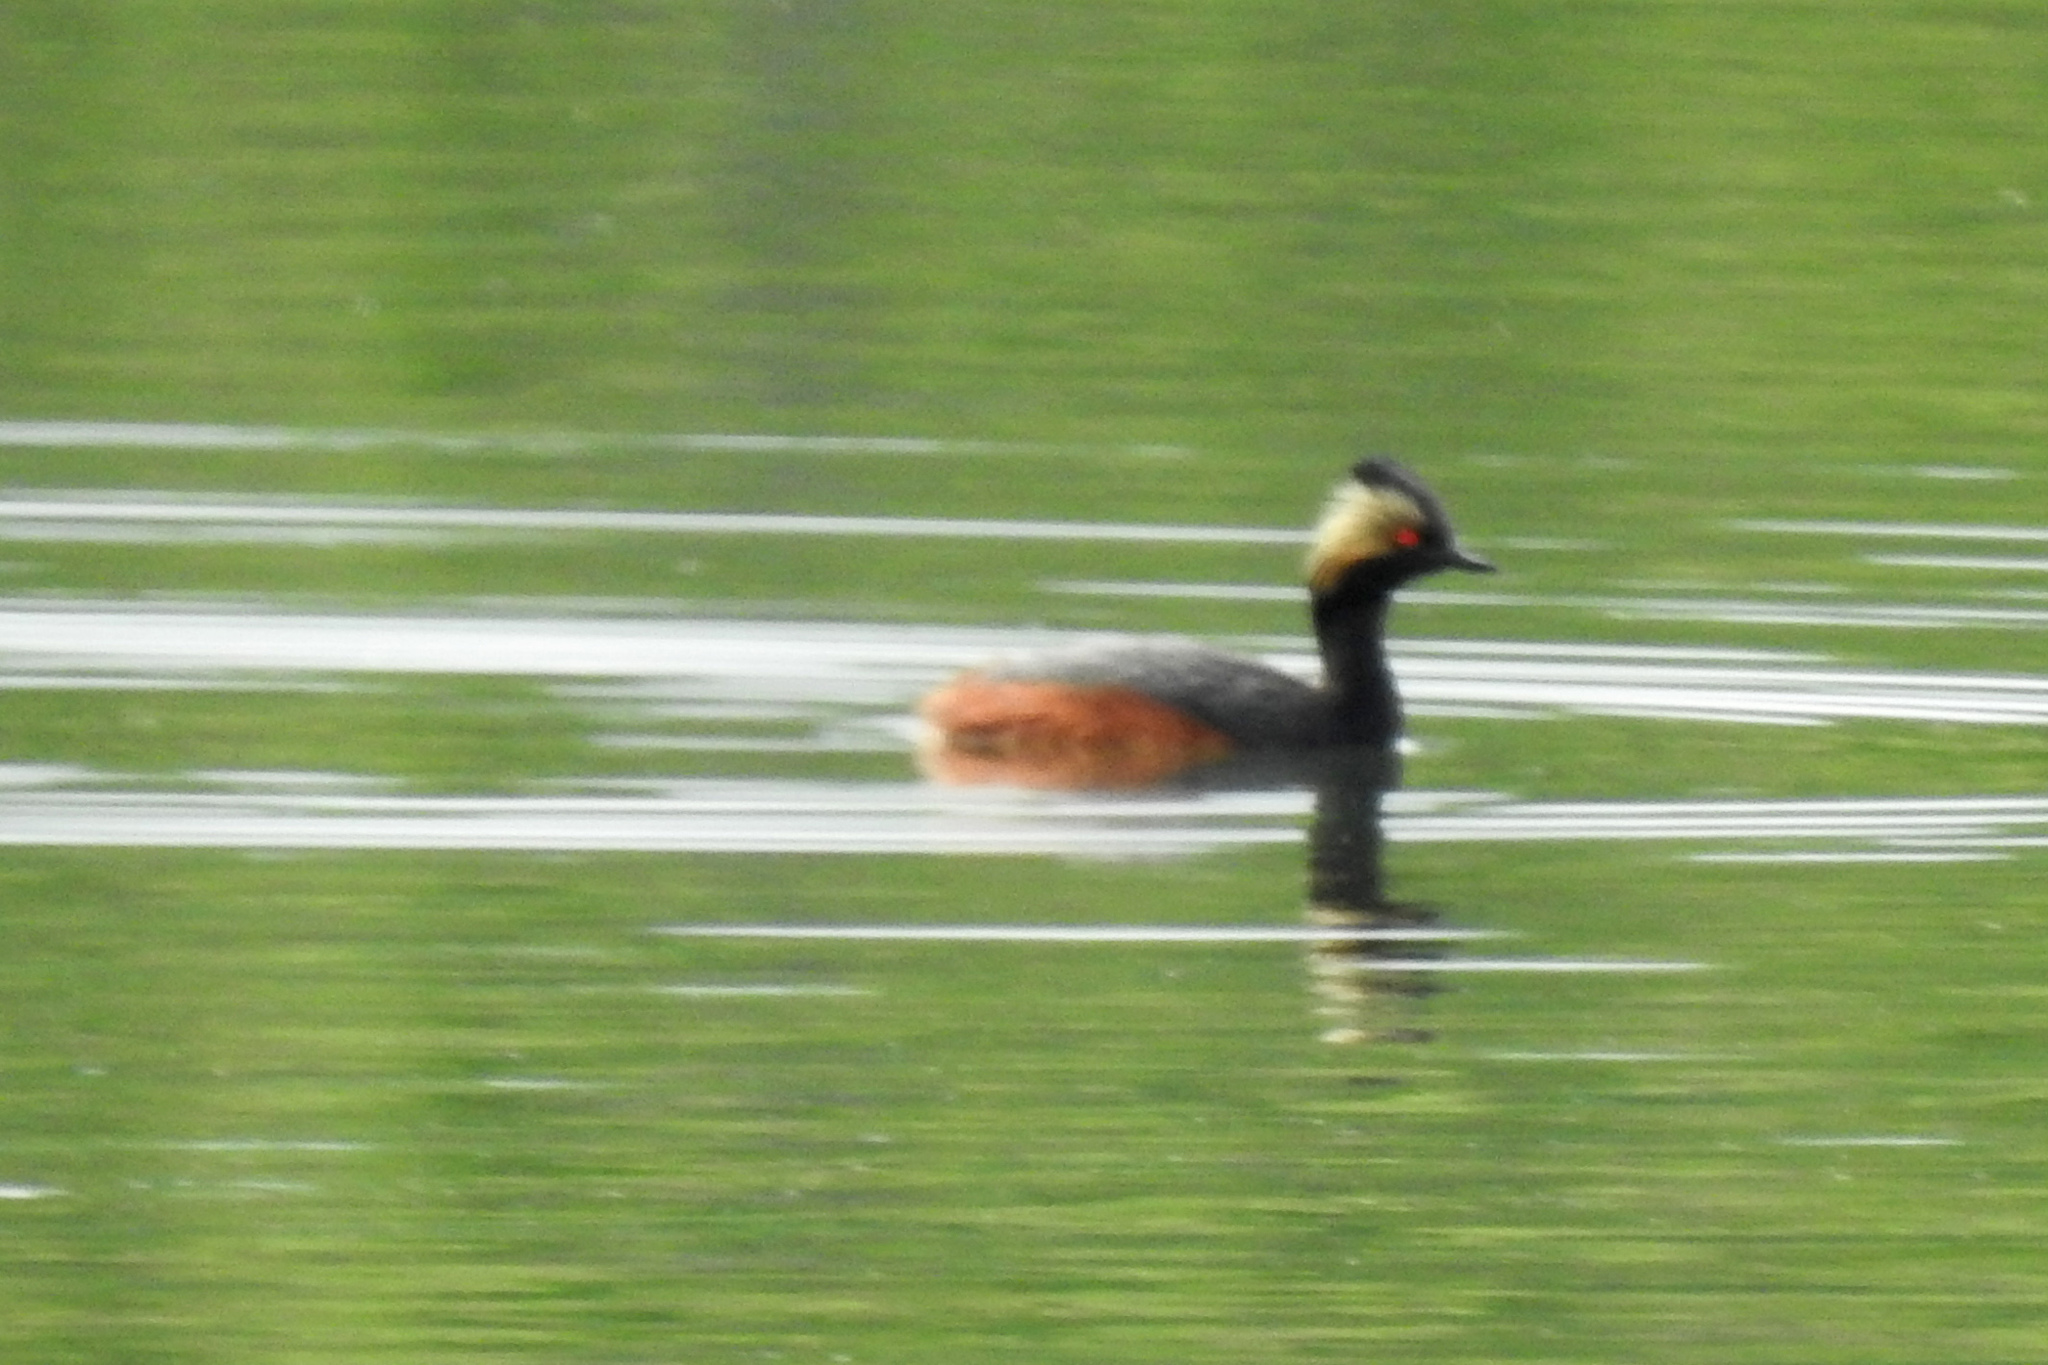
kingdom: Animalia
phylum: Chordata
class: Aves
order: Podicipediformes
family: Podicipedidae
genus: Podiceps
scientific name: Podiceps nigricollis
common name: Black-necked grebe
